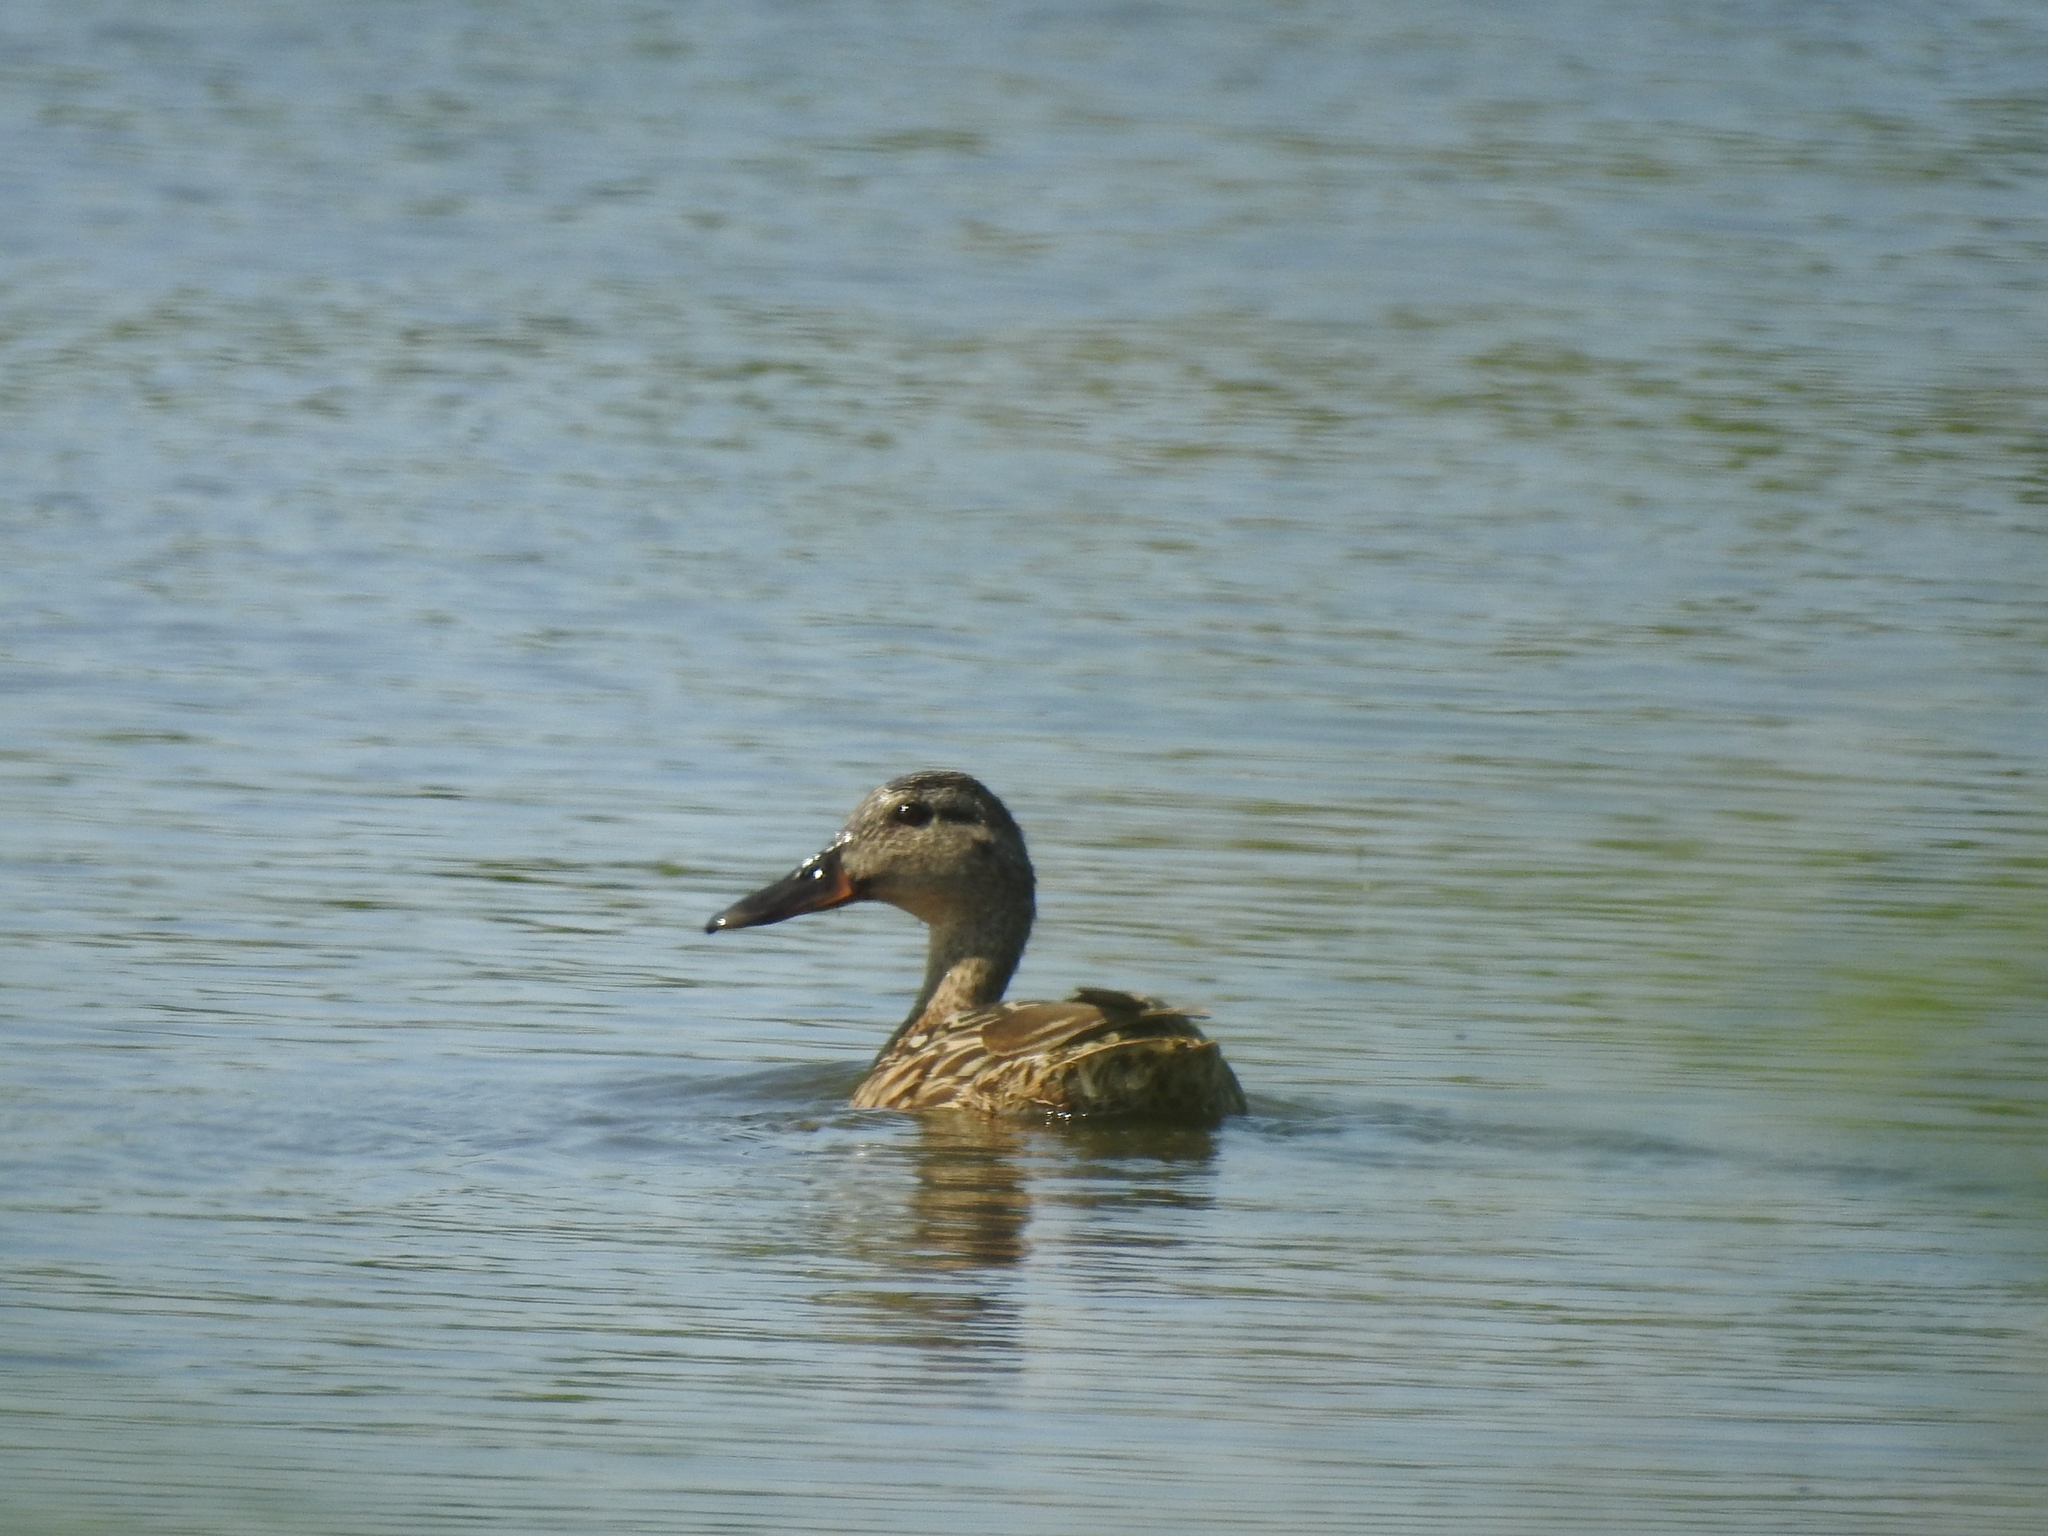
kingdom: Animalia
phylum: Chordata
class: Aves
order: Anseriformes
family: Anatidae
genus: Anas
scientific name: Anas platyrhynchos
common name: Mallard
